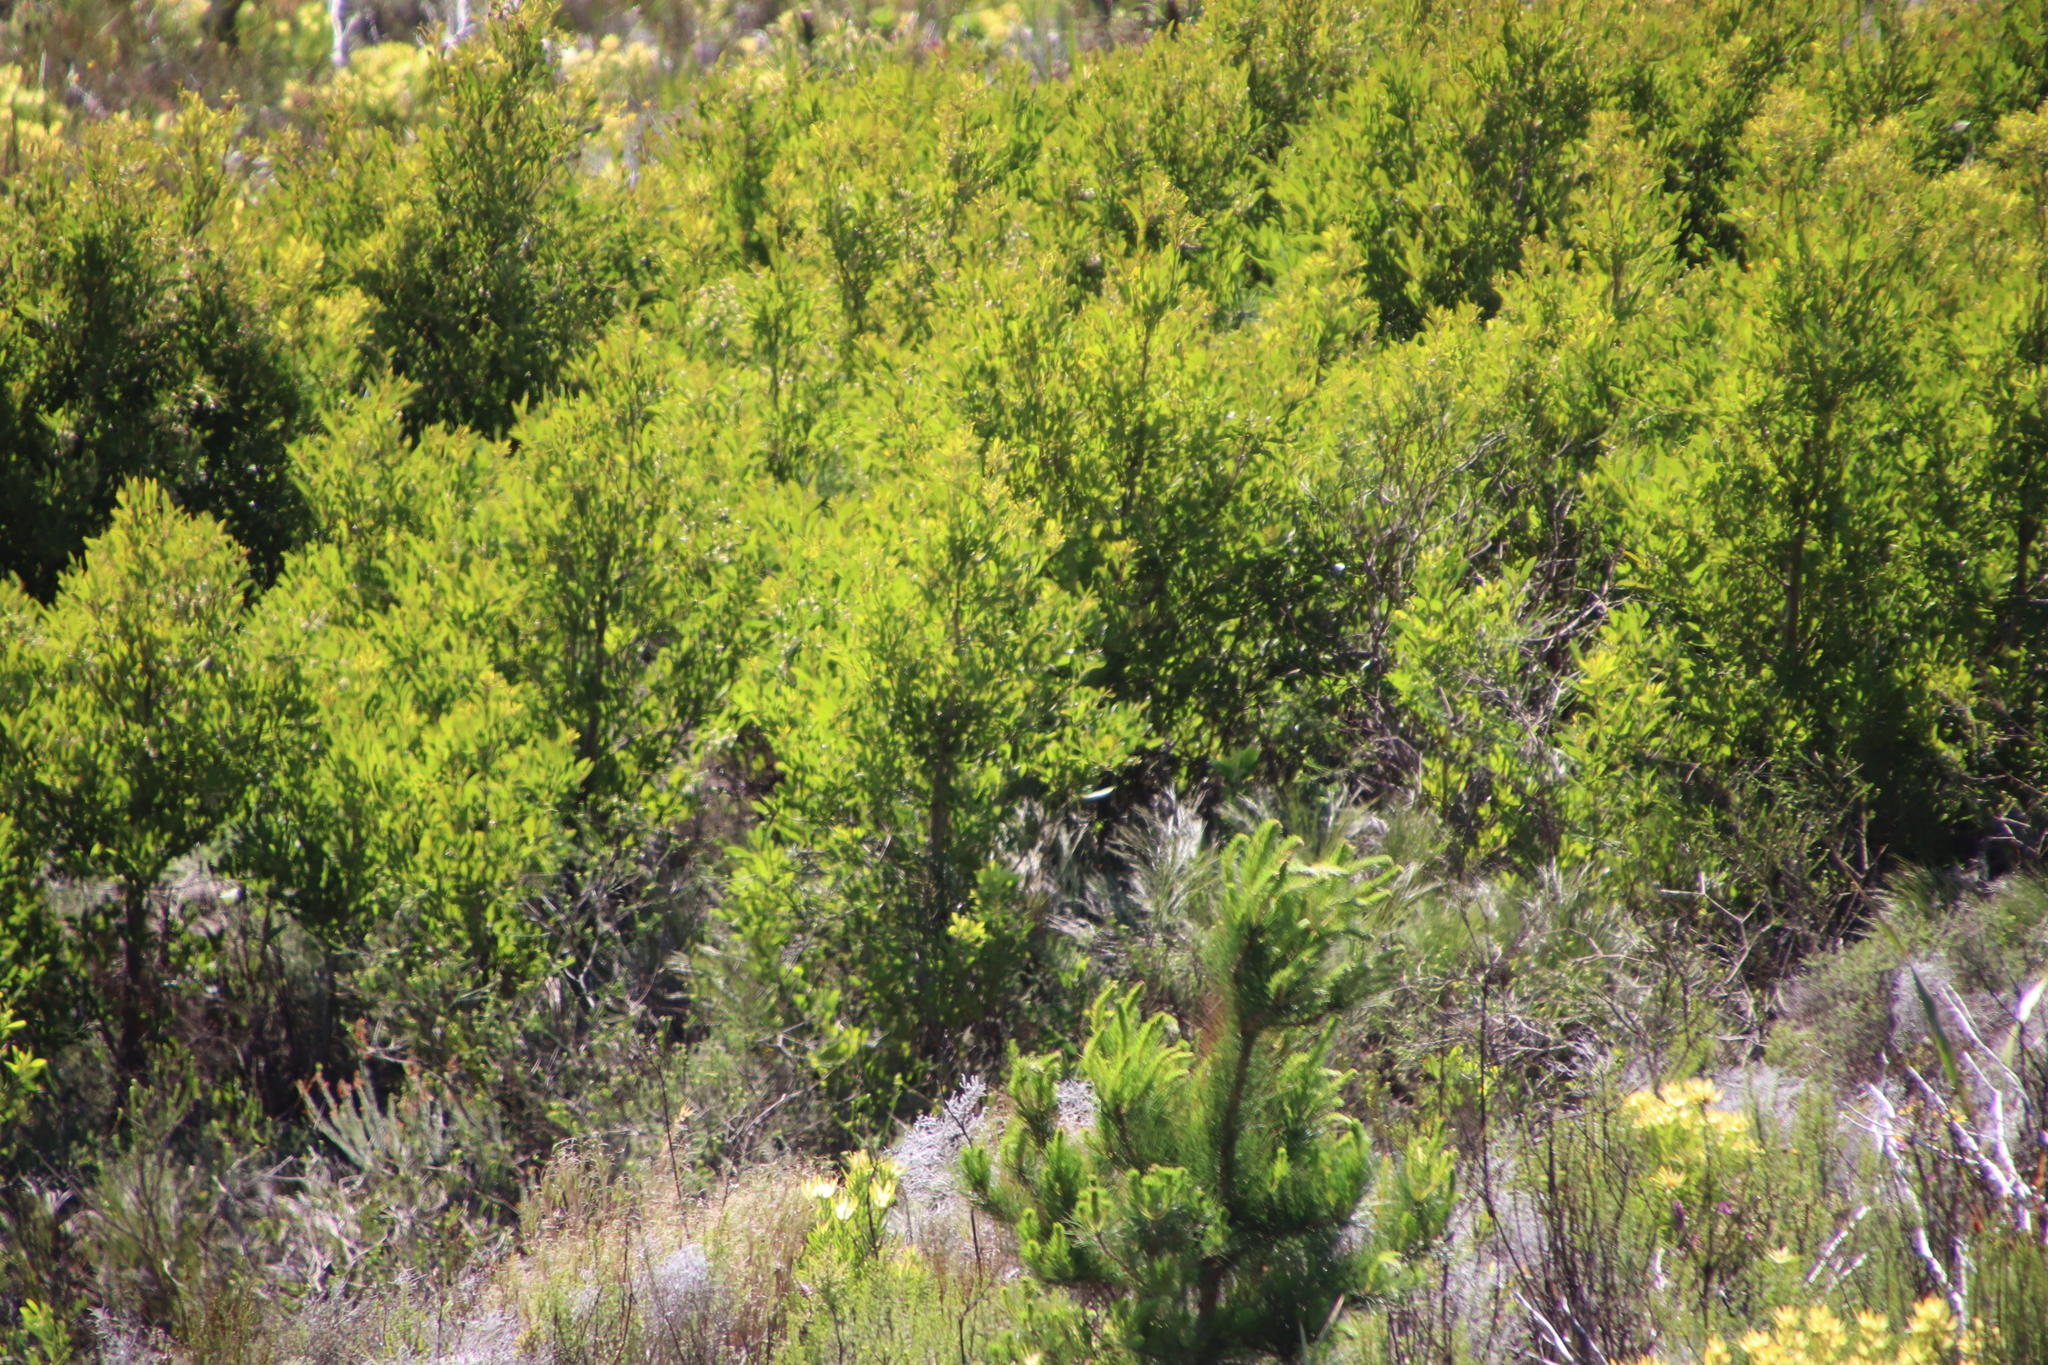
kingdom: Plantae
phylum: Tracheophyta
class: Magnoliopsida
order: Fabales
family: Fabaceae
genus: Acacia
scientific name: Acacia melanoxylon
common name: Blackwood
